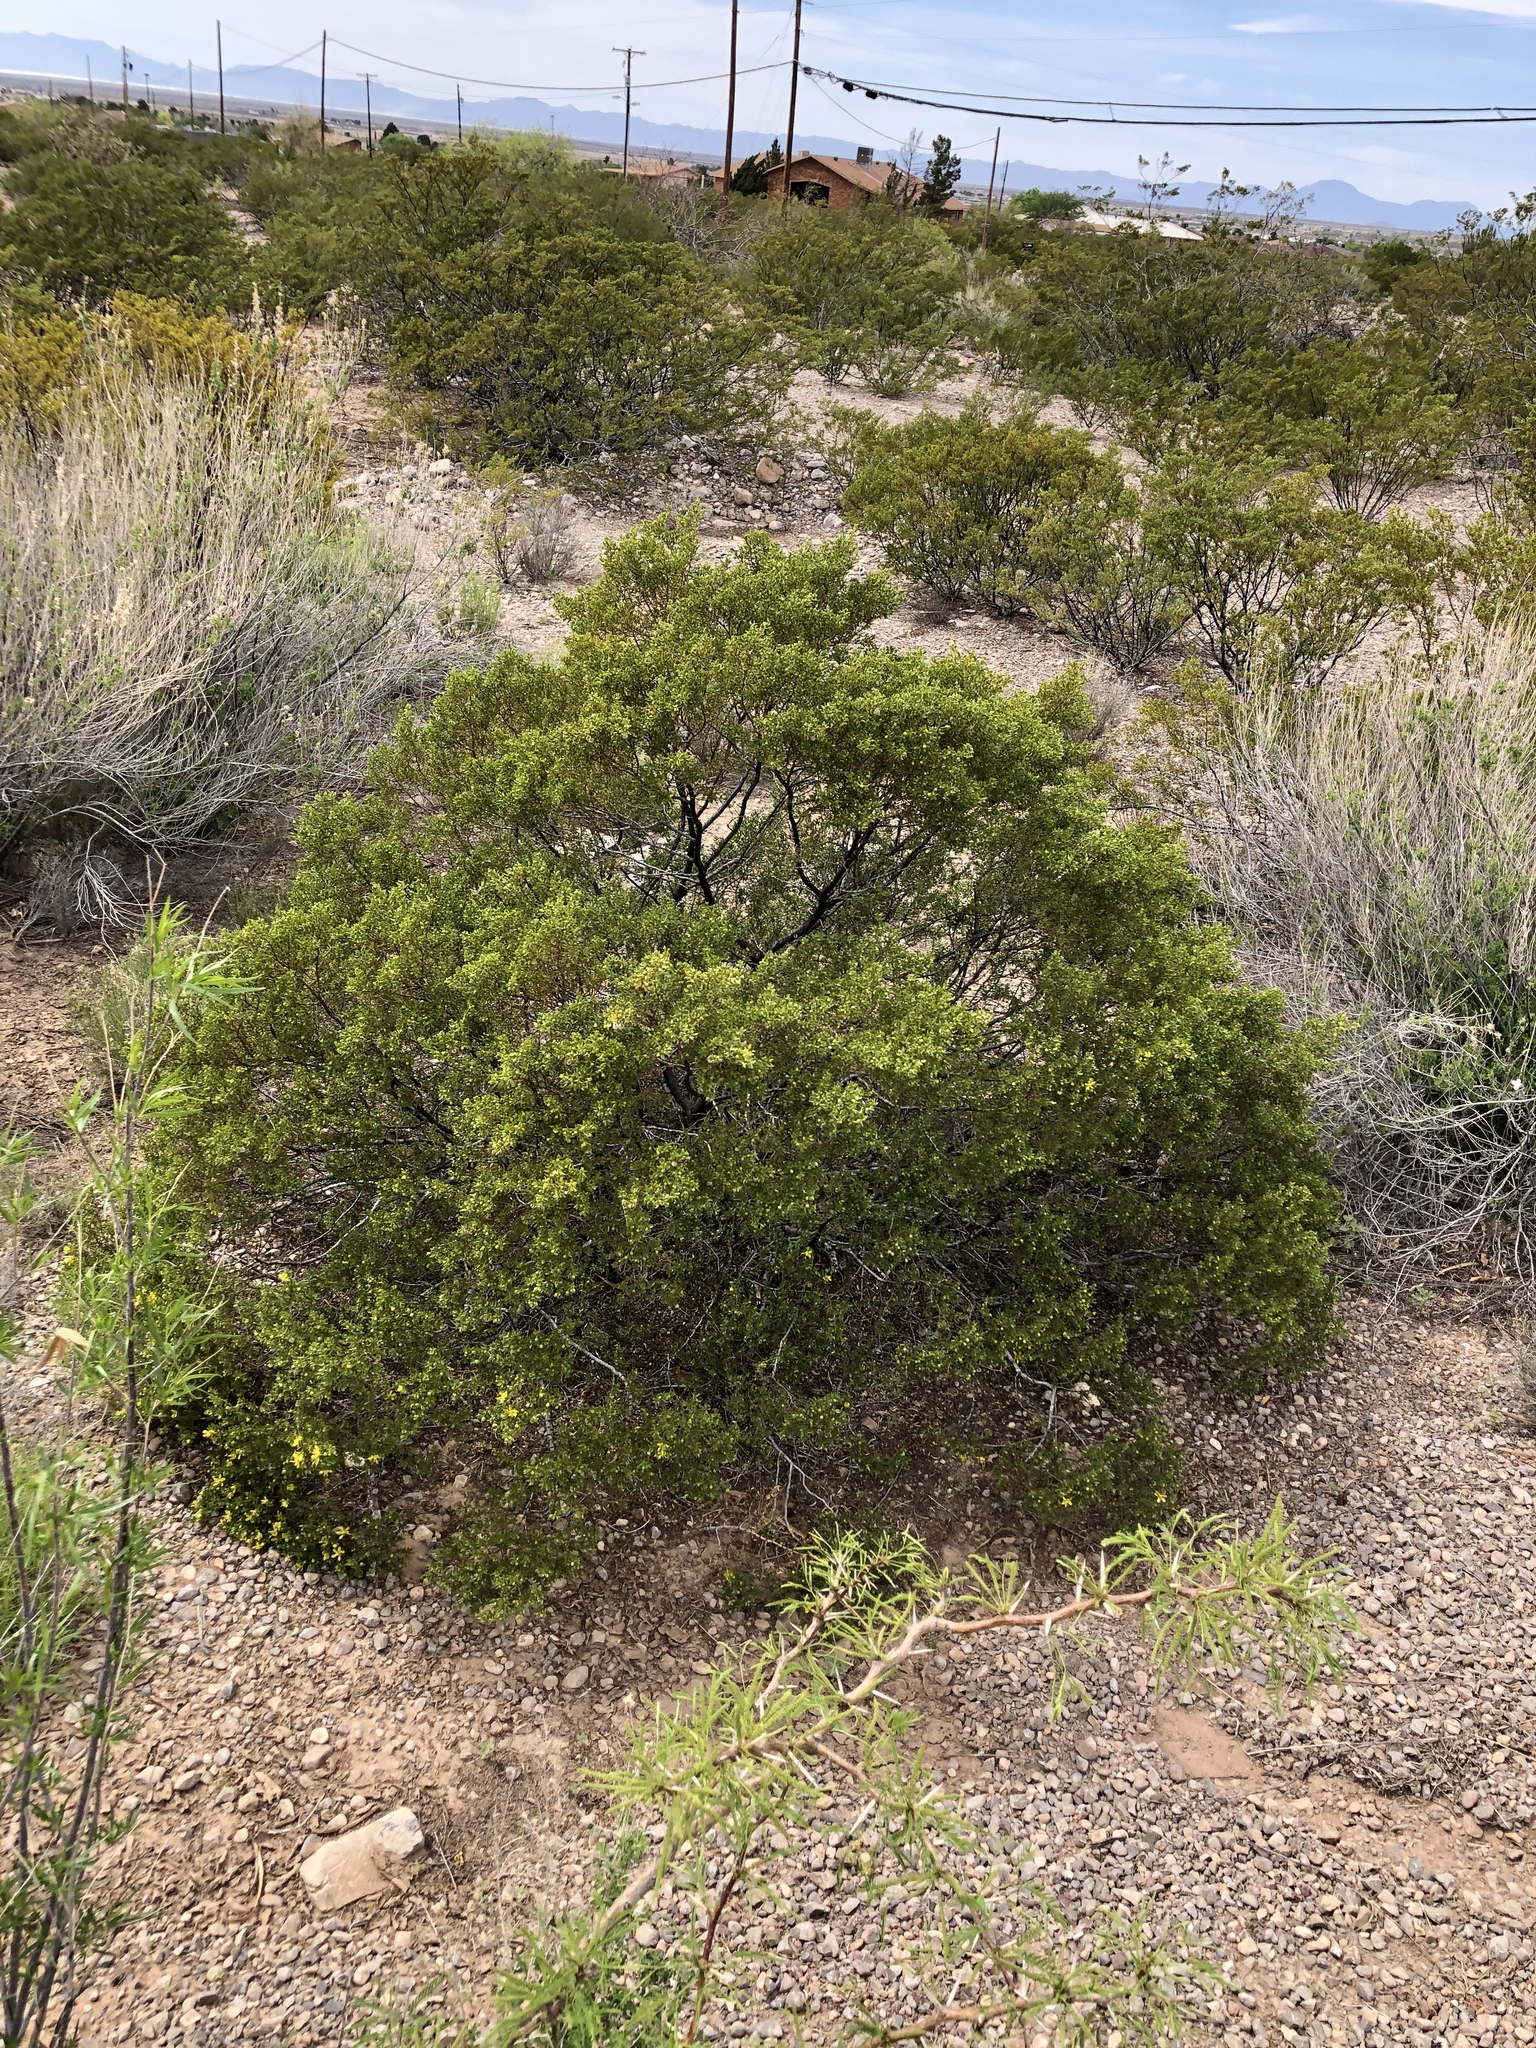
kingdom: Plantae
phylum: Tracheophyta
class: Magnoliopsida
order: Zygophyllales
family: Zygophyllaceae
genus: Larrea
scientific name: Larrea tridentata
